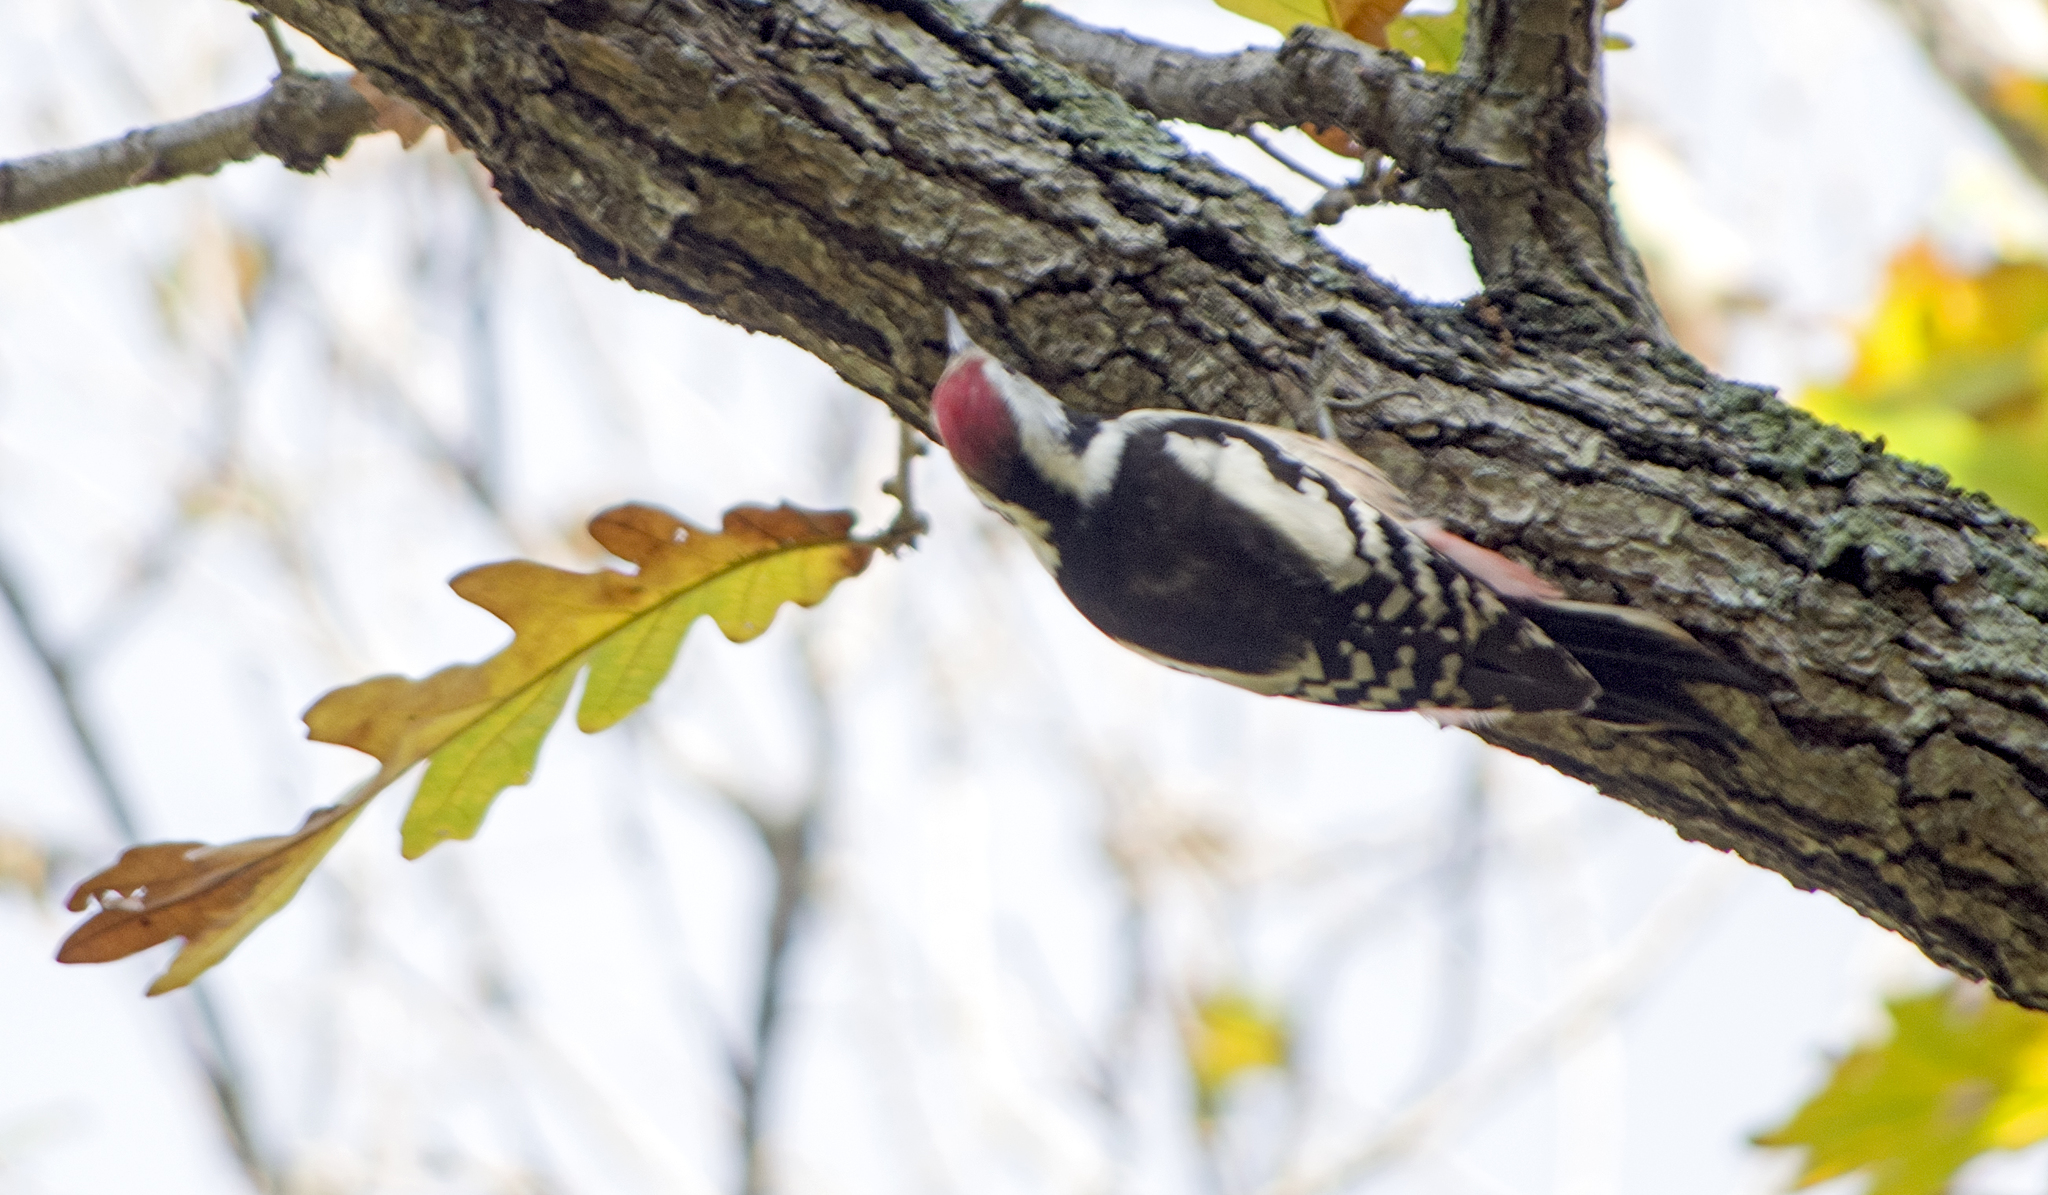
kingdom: Animalia
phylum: Chordata
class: Aves
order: Piciformes
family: Picidae
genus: Dendrocoptes
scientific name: Dendrocoptes medius
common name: Middle spotted woodpecker
